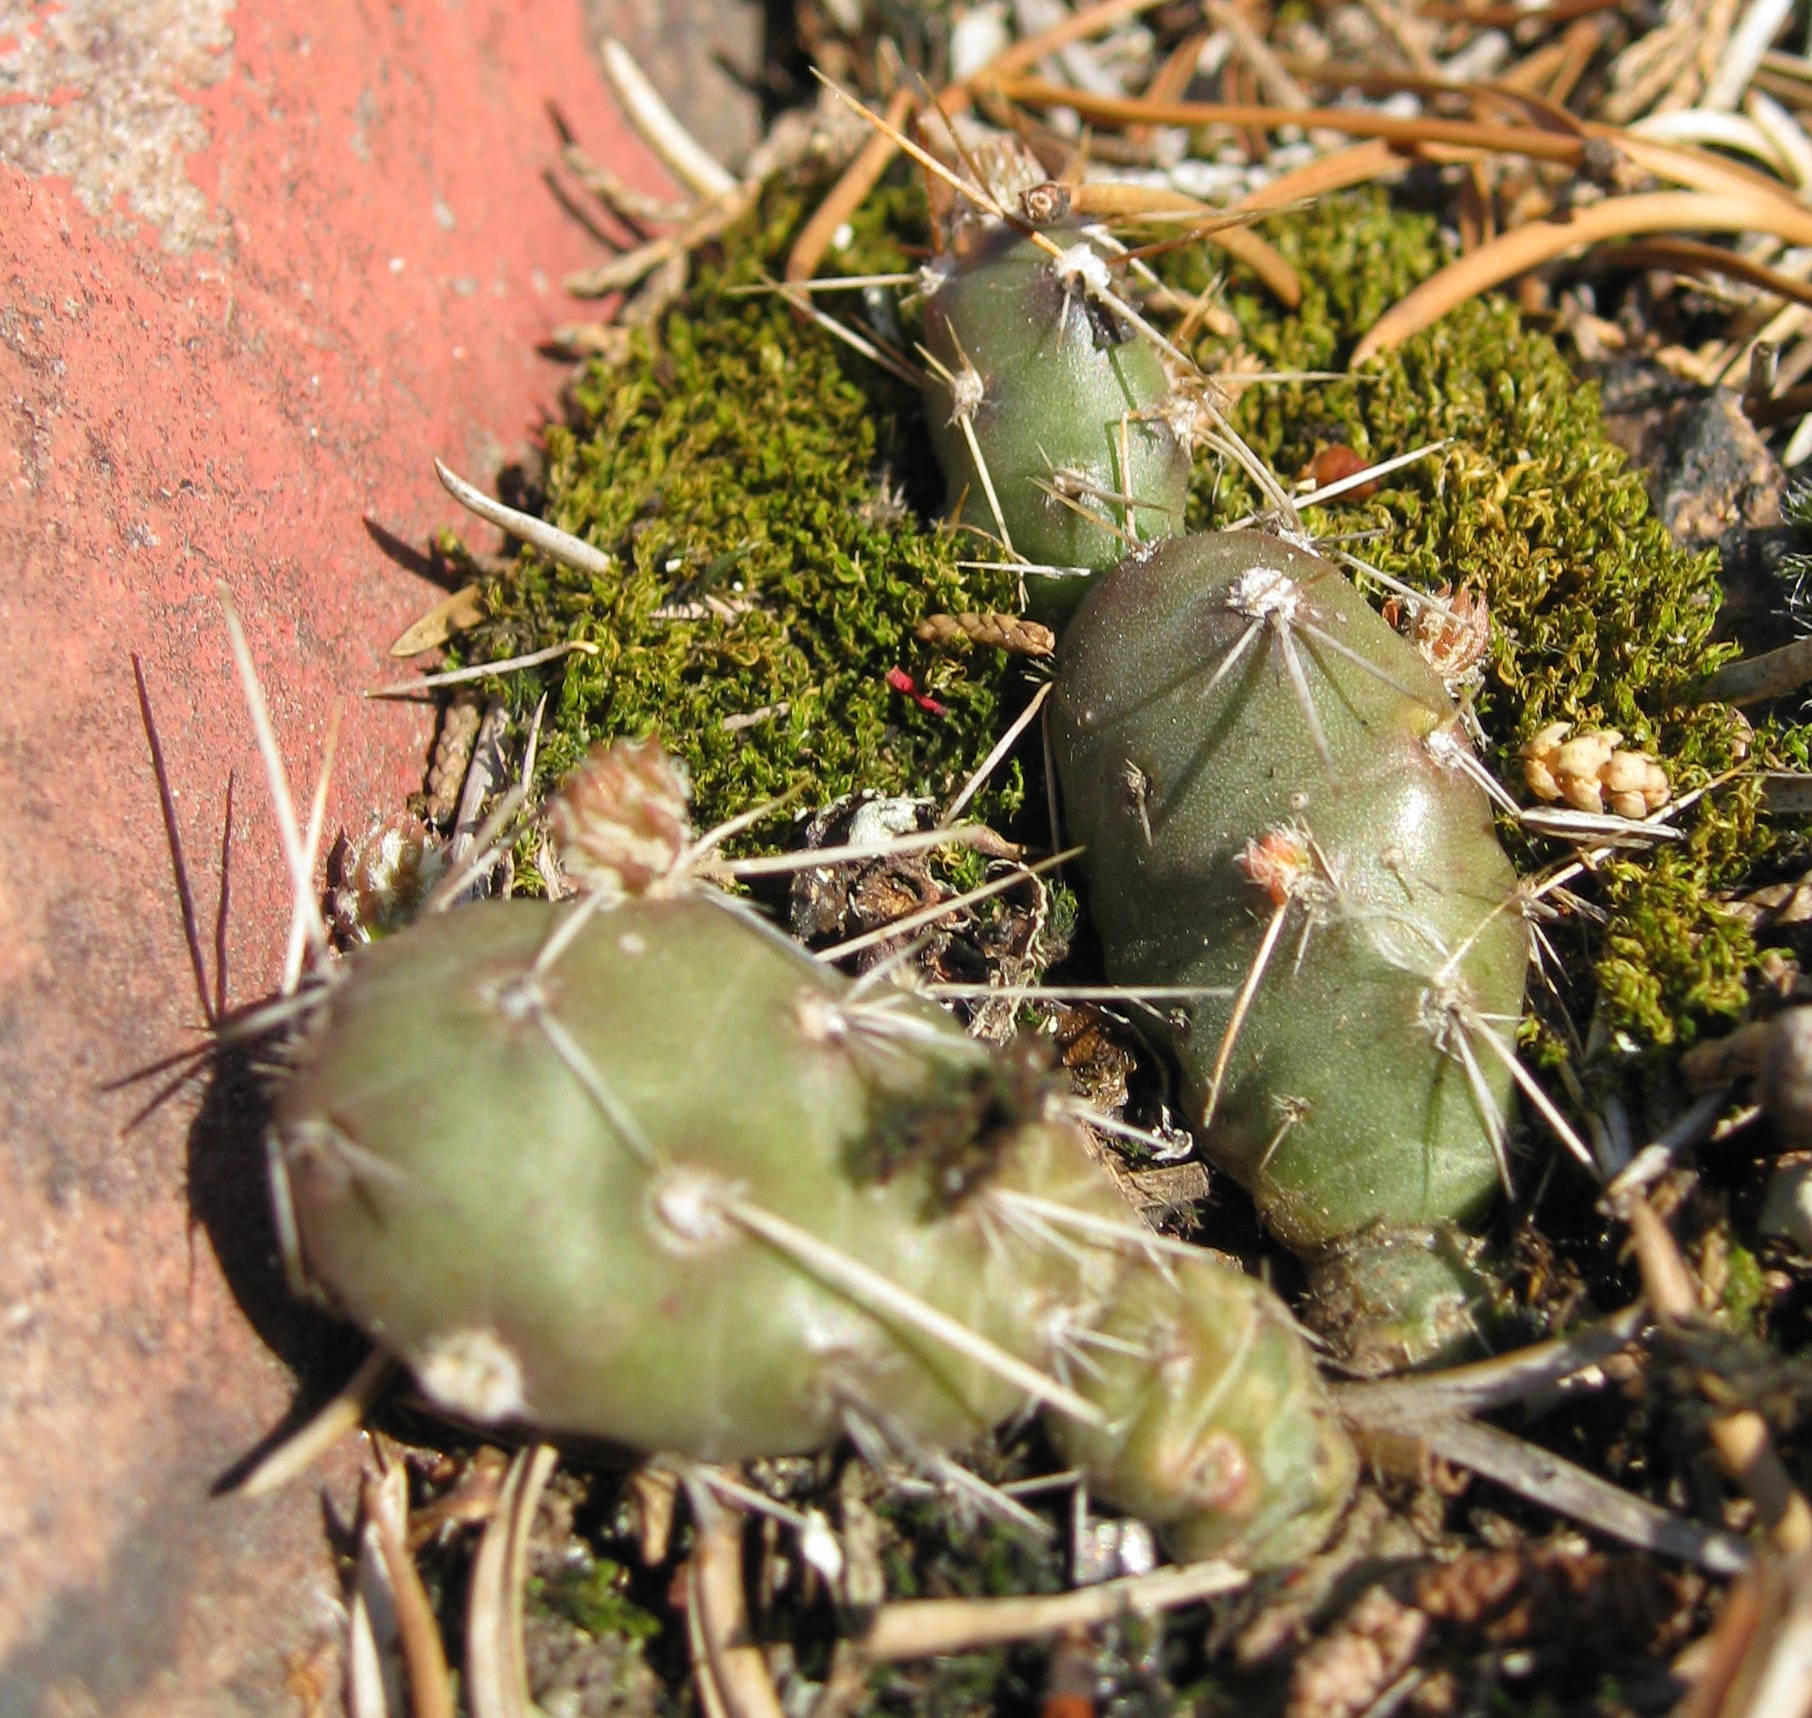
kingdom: Plantae
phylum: Tracheophyta
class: Magnoliopsida
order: Caryophyllales
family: Cactaceae
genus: Opuntia
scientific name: Opuntia fragilis
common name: Brittle cactus
